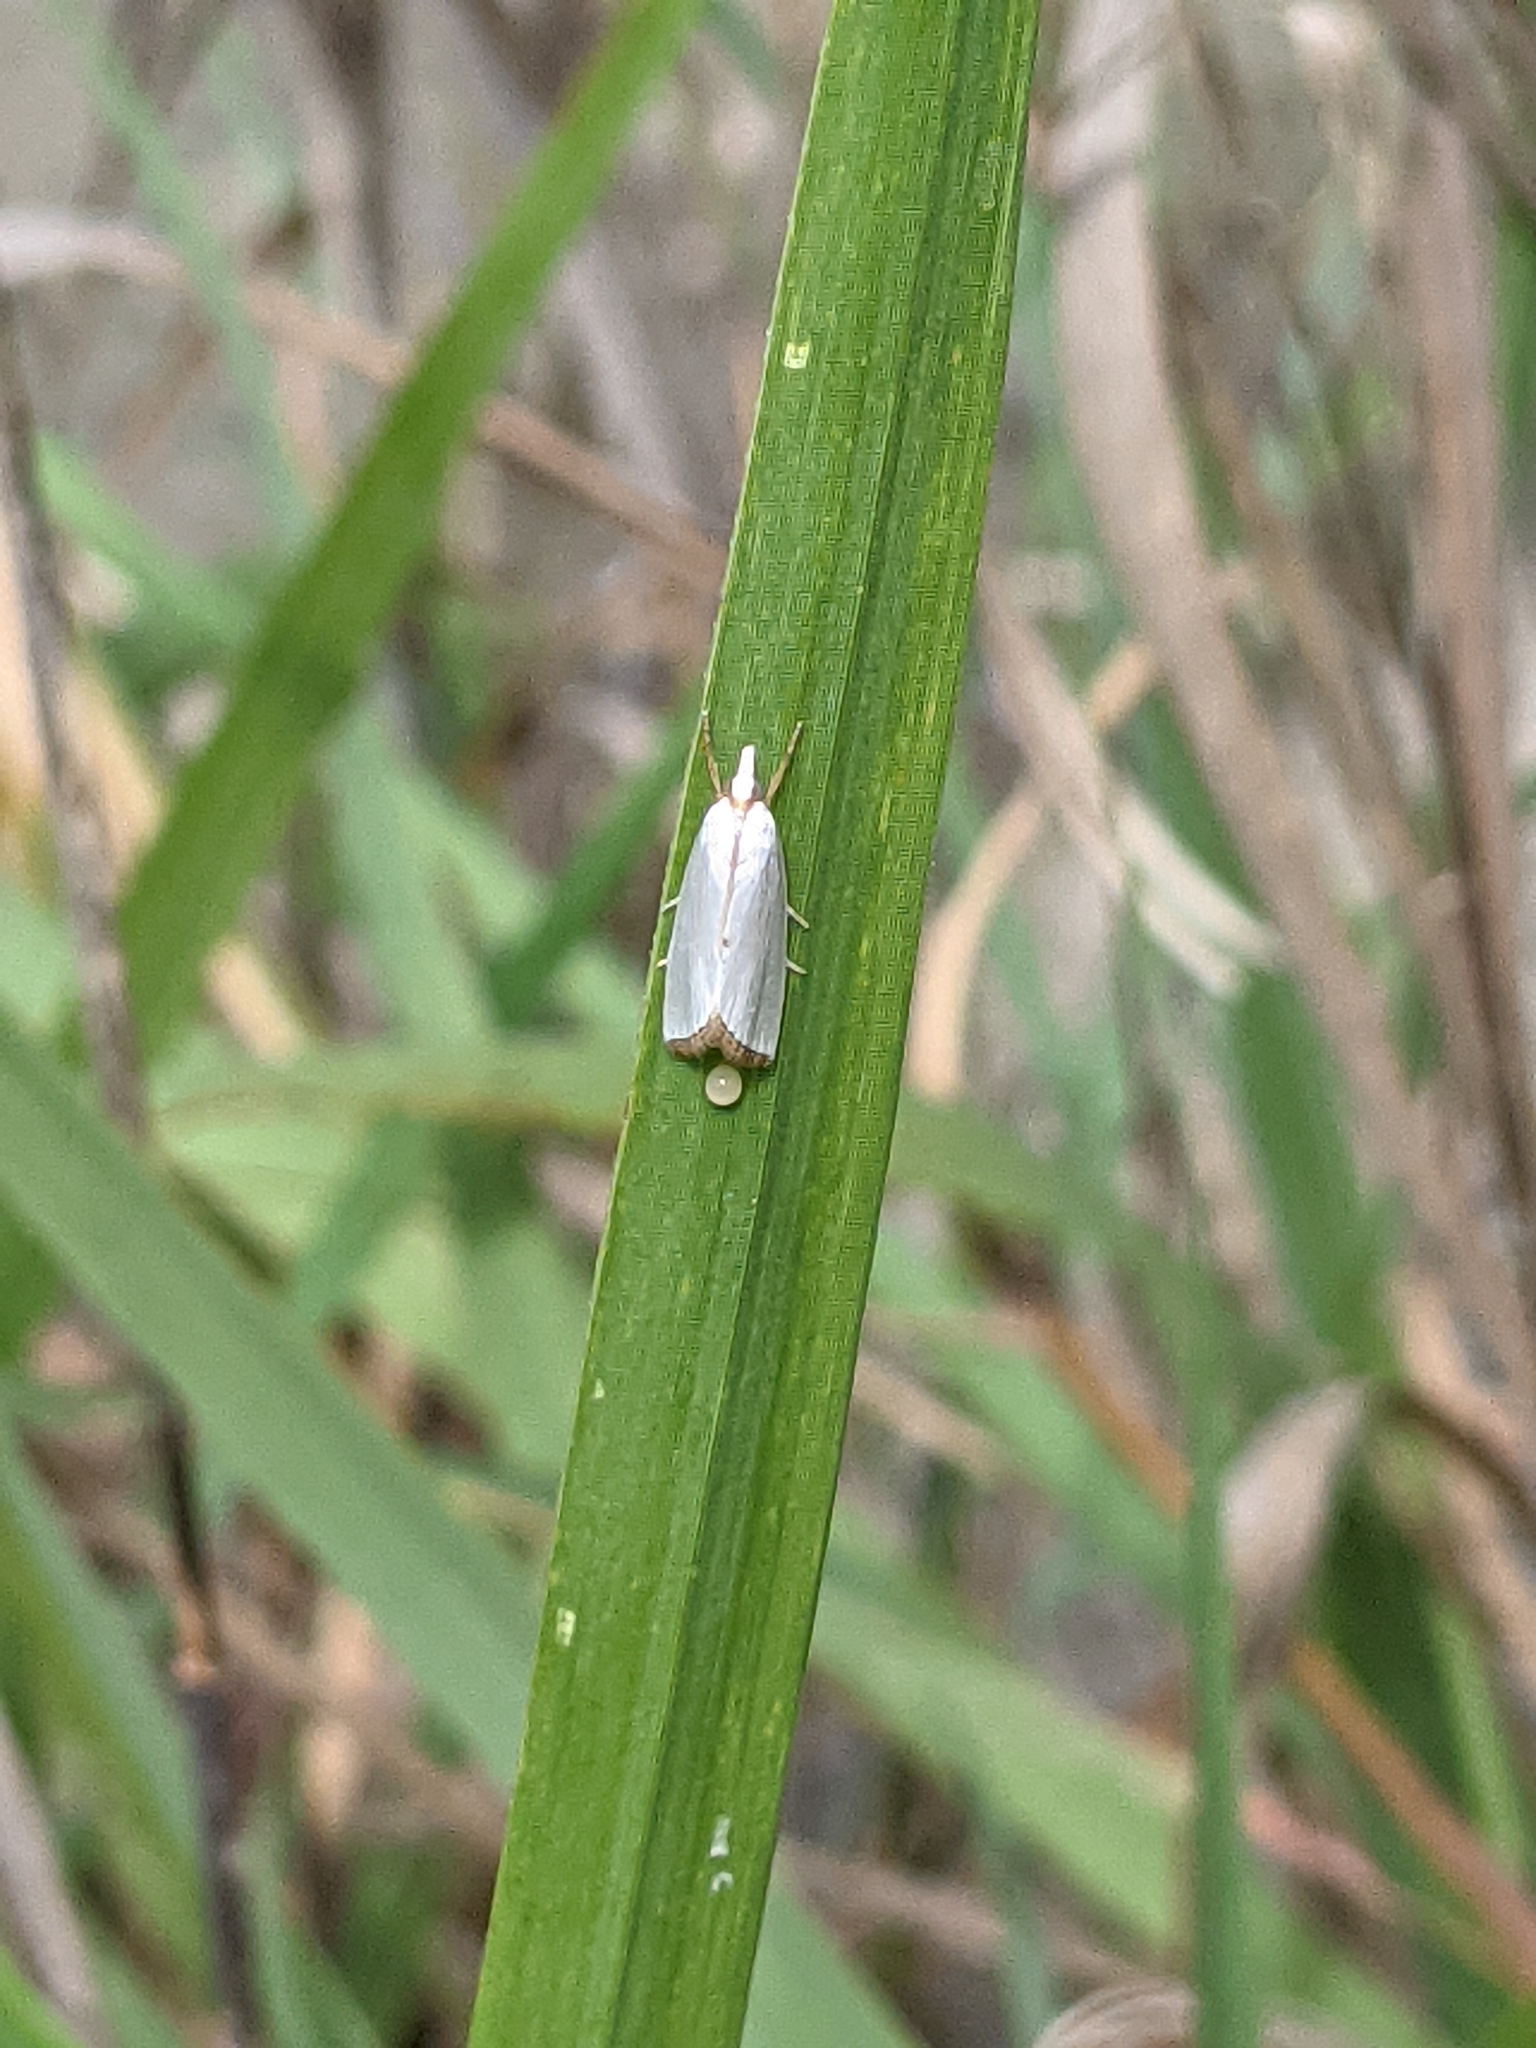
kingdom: Animalia
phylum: Arthropoda
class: Insecta
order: Lepidoptera
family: Crambidae
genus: Argyria
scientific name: Argyria nivalis
